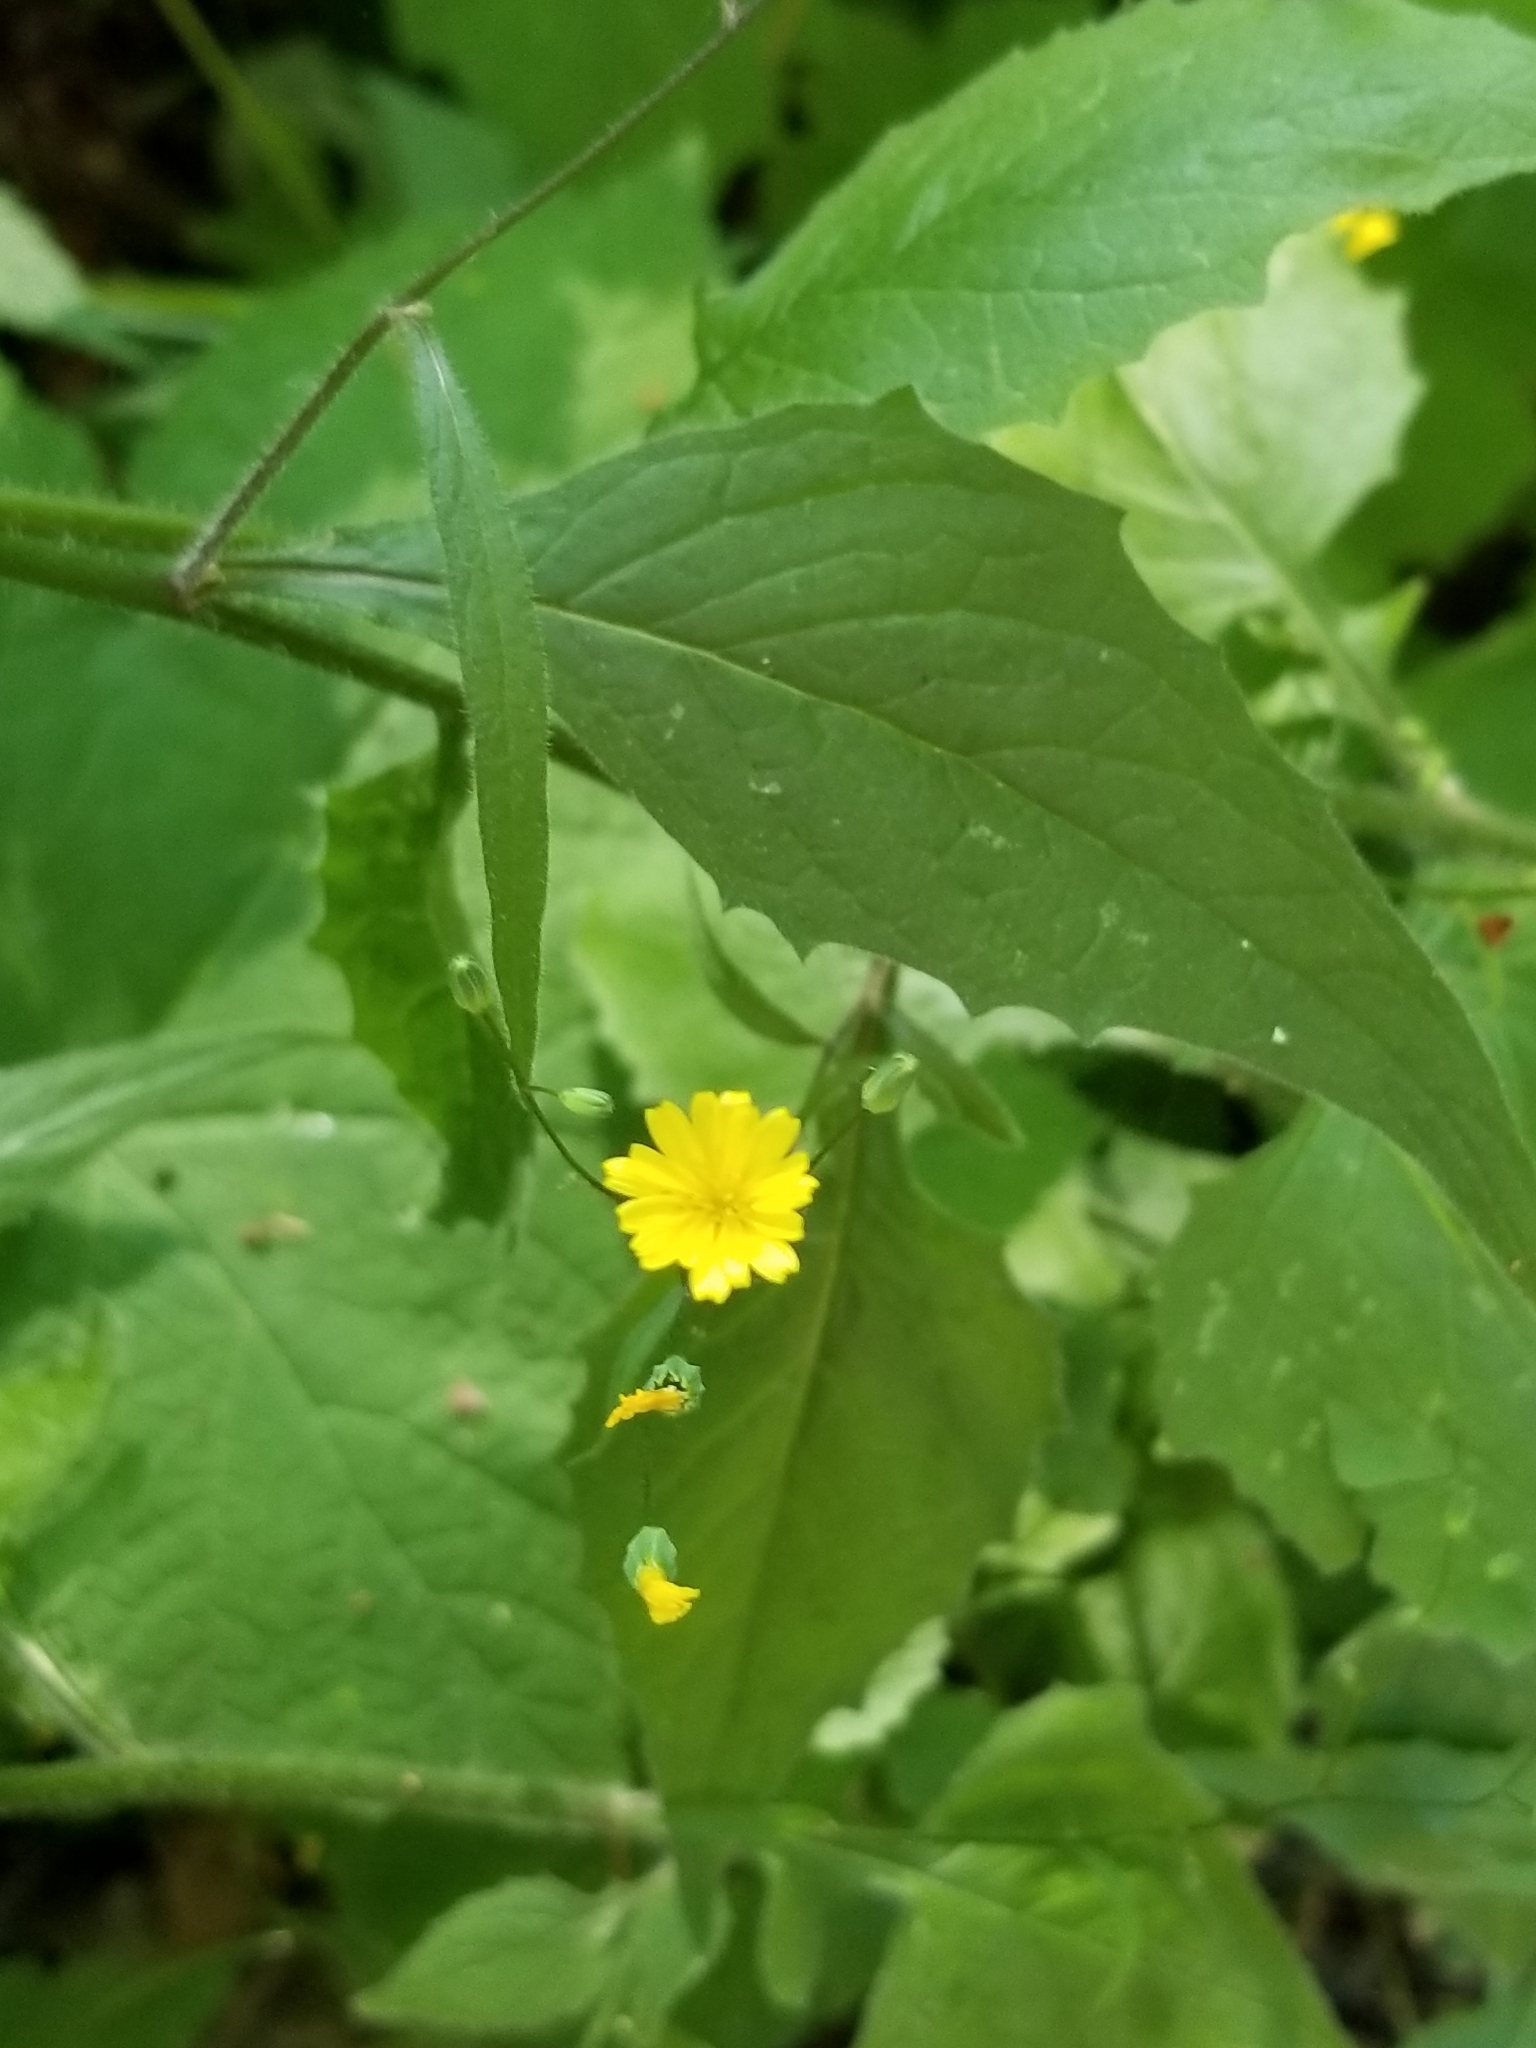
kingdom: Plantae
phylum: Tracheophyta
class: Magnoliopsida
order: Asterales
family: Asteraceae
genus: Lapsana
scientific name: Lapsana communis
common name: Nipplewort
